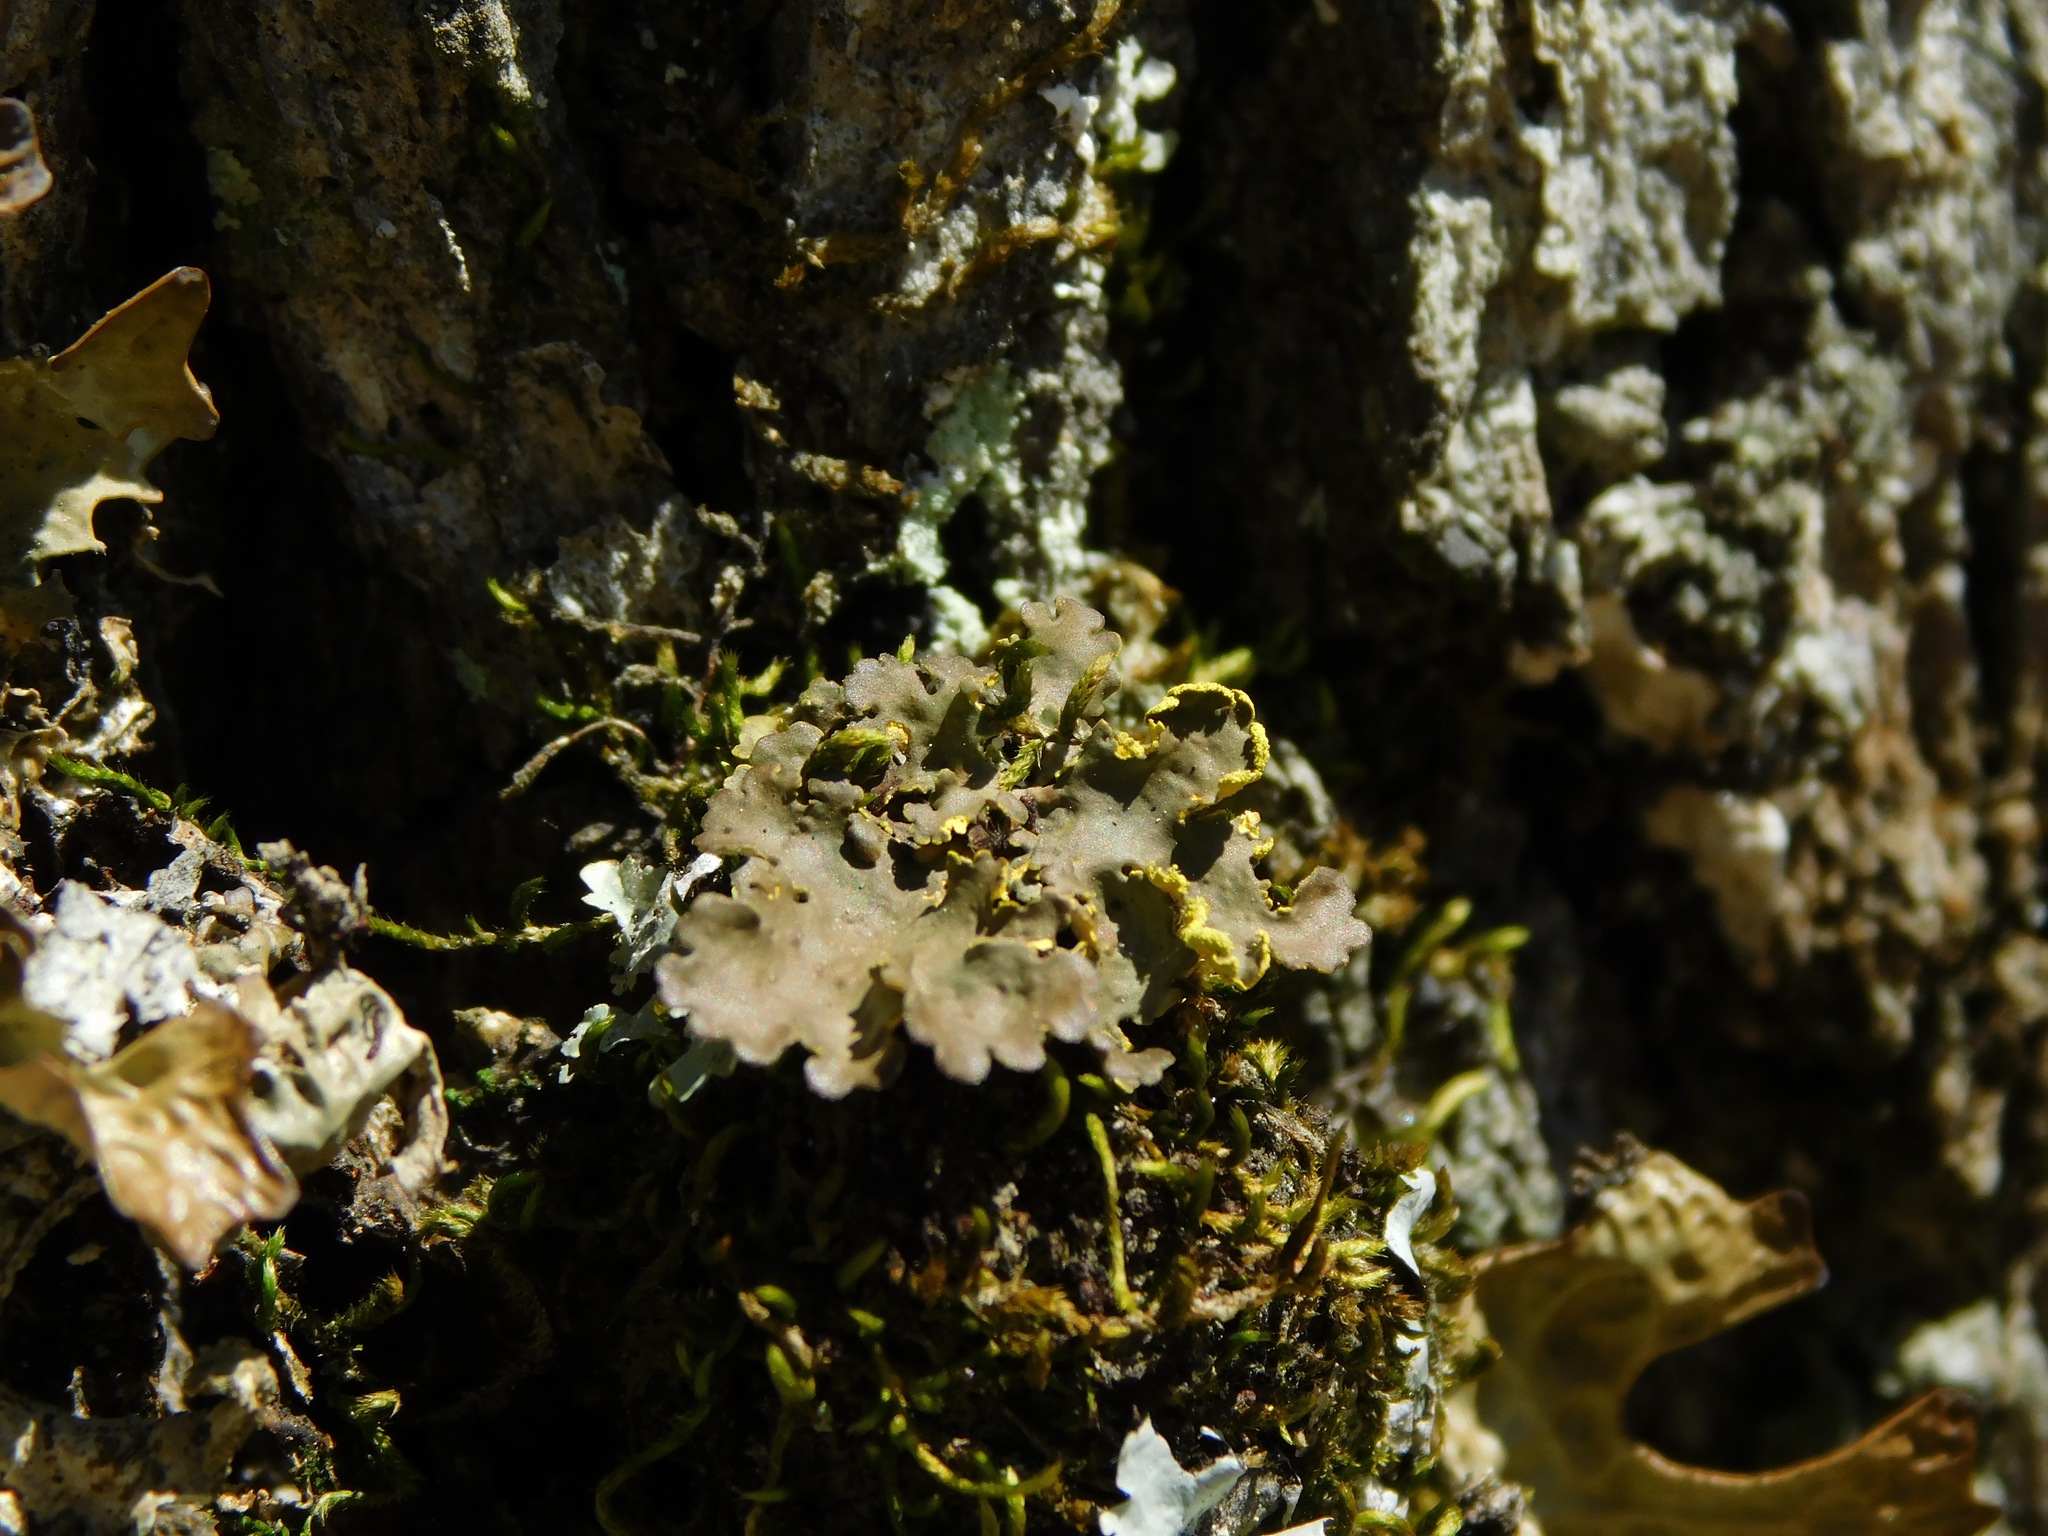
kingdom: Fungi
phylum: Ascomycota
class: Lecanoromycetes
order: Peltigerales
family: Lobariaceae
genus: Pseudocyphellaria
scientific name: Pseudocyphellaria aurata
